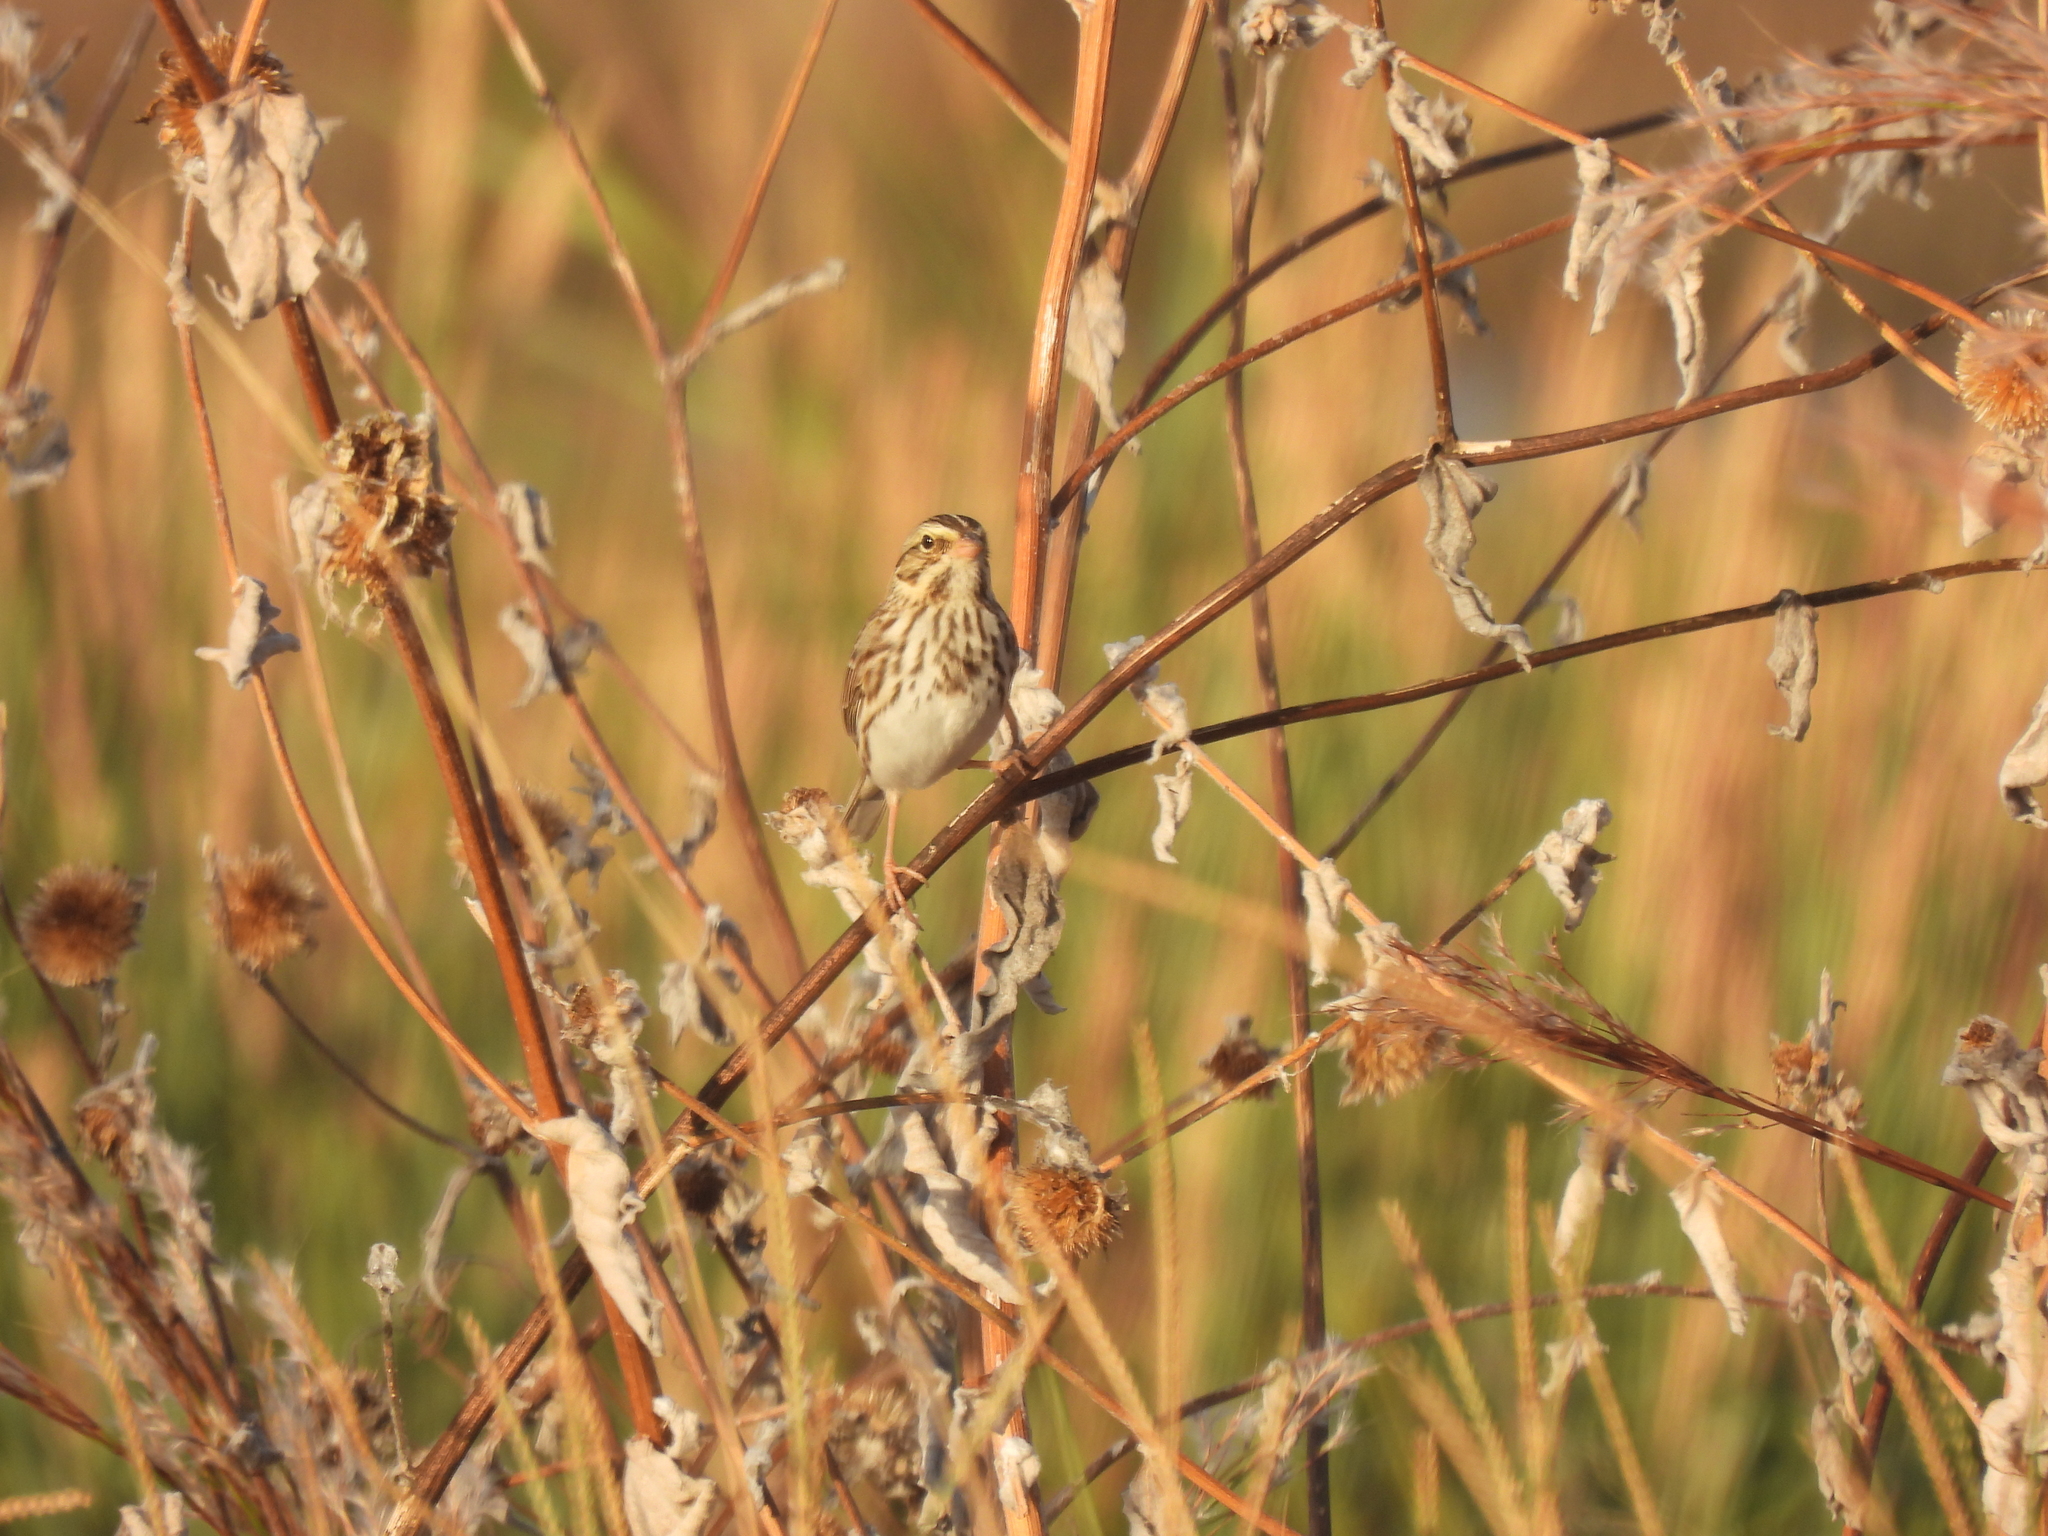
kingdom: Animalia
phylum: Chordata
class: Aves
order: Passeriformes
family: Passerellidae
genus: Passerculus
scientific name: Passerculus sandwichensis
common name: Savannah sparrow
